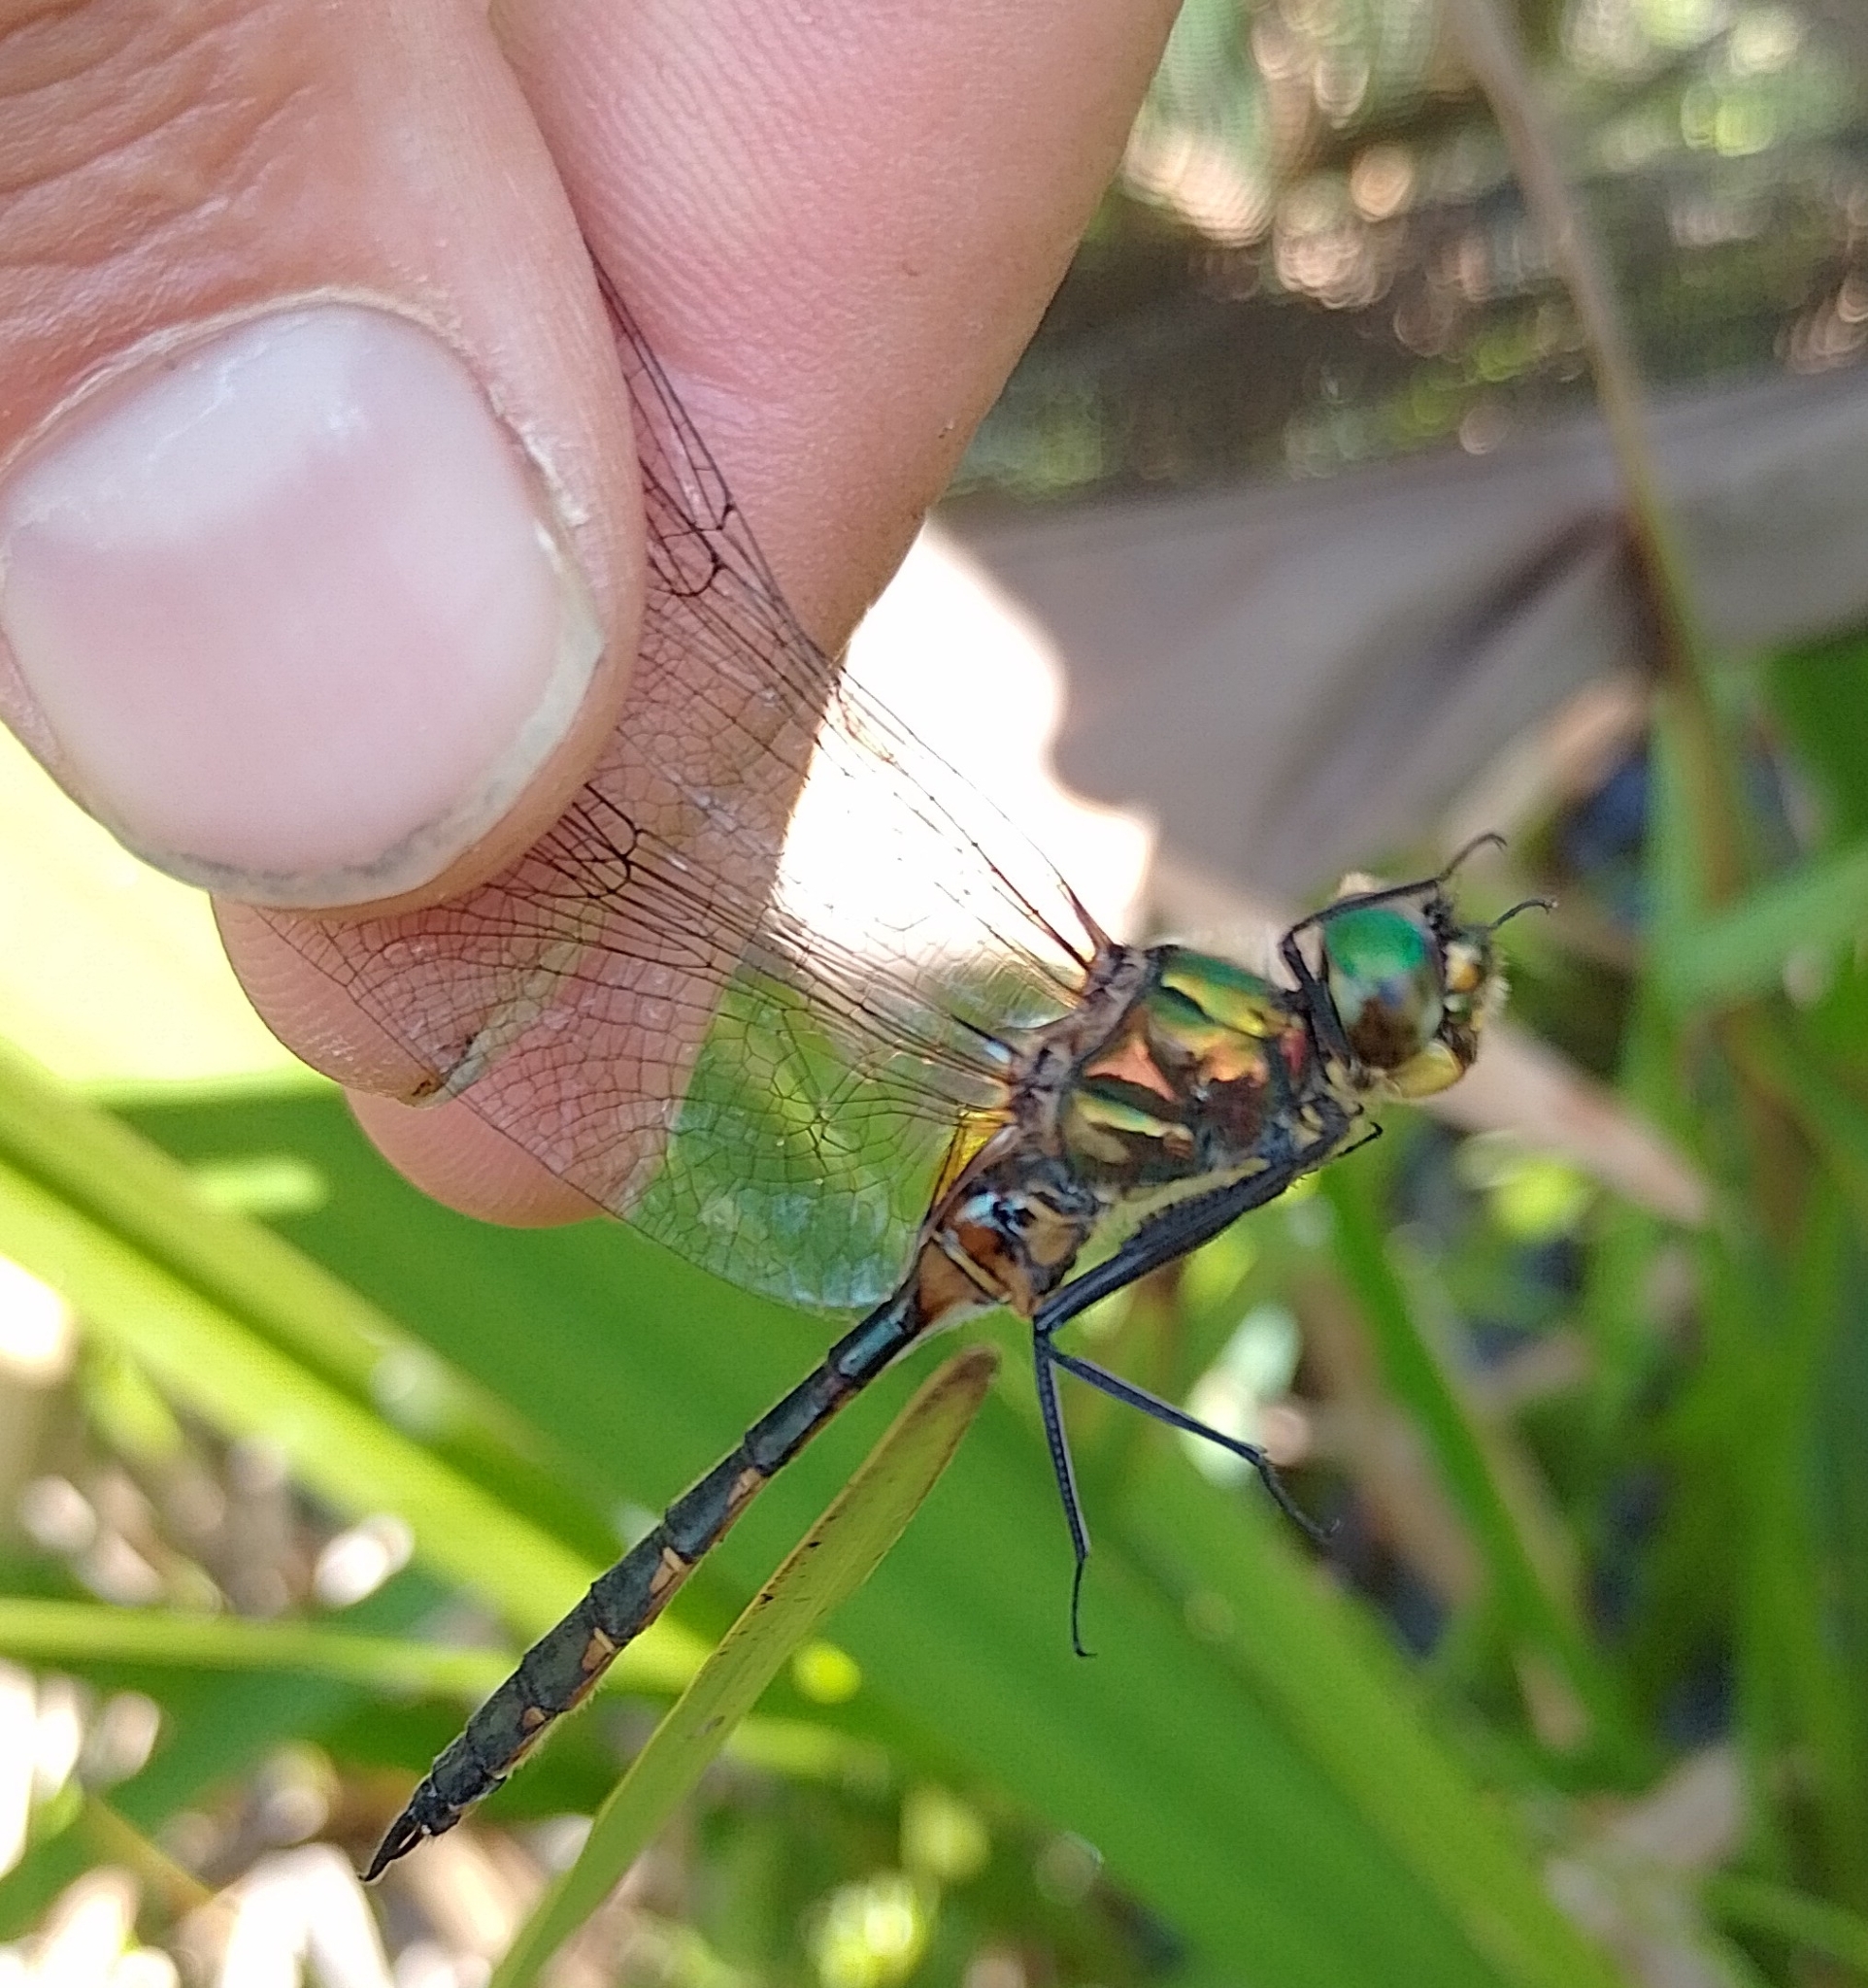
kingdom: Animalia
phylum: Arthropoda
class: Insecta
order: Odonata
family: Corduliidae
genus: Somatochlora
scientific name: Somatochlora flavomaculata
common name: Yellow-spotted emerald
